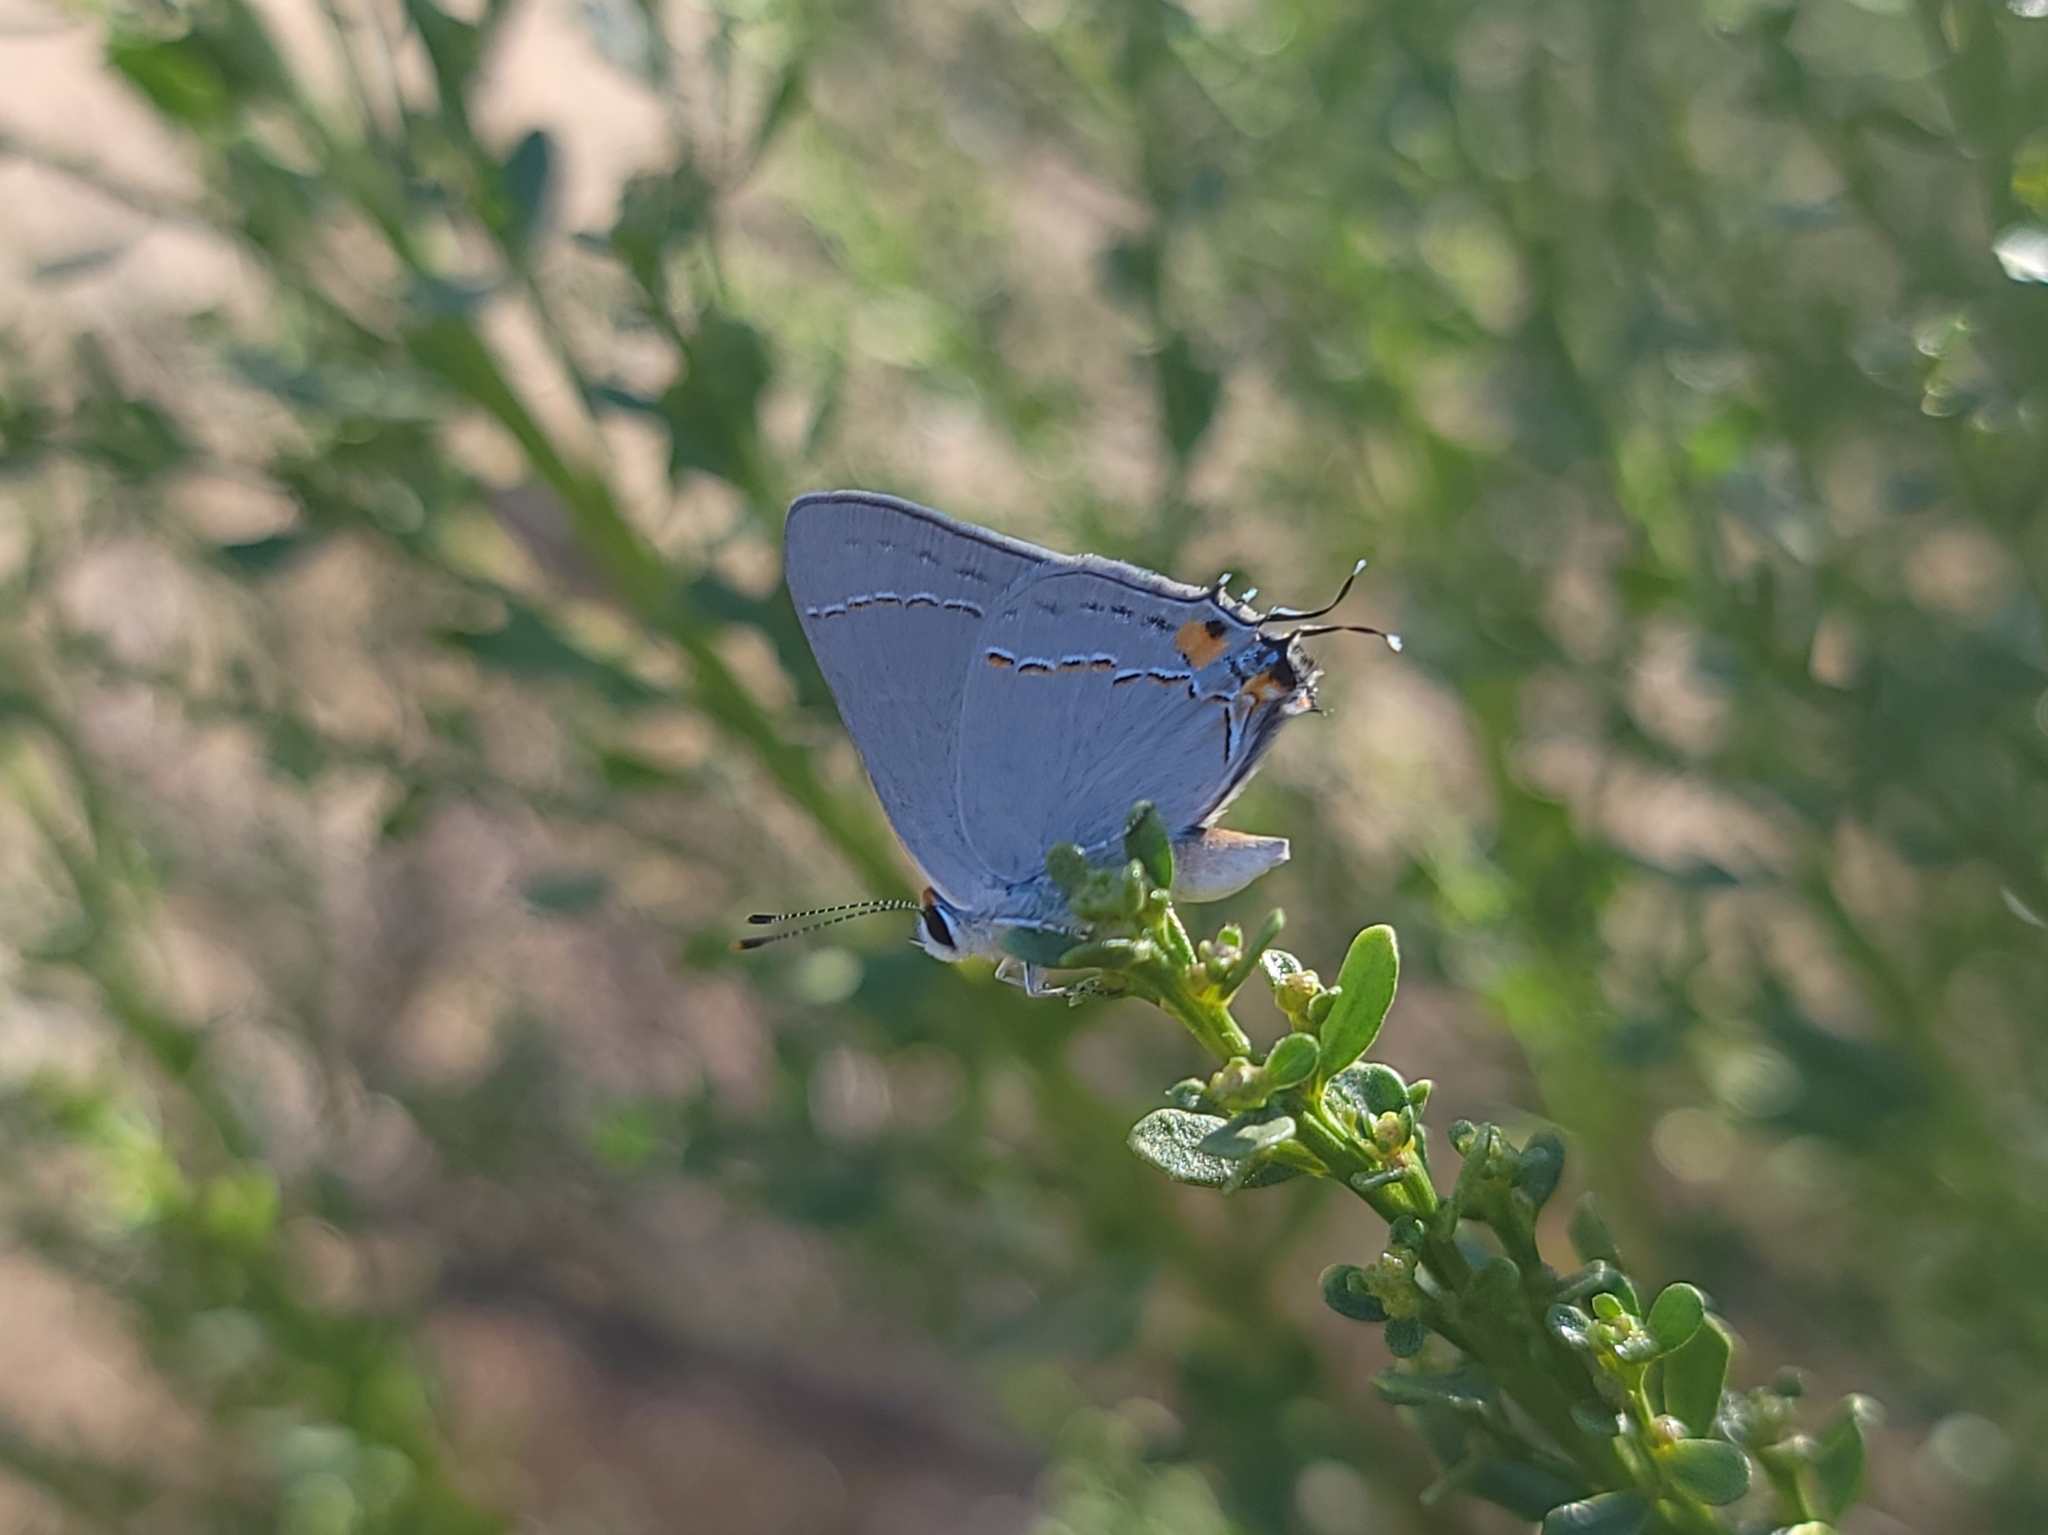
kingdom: Animalia
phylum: Arthropoda
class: Insecta
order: Lepidoptera
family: Lycaenidae
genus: Strymon
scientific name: Strymon melinus
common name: Gray hairstreak
